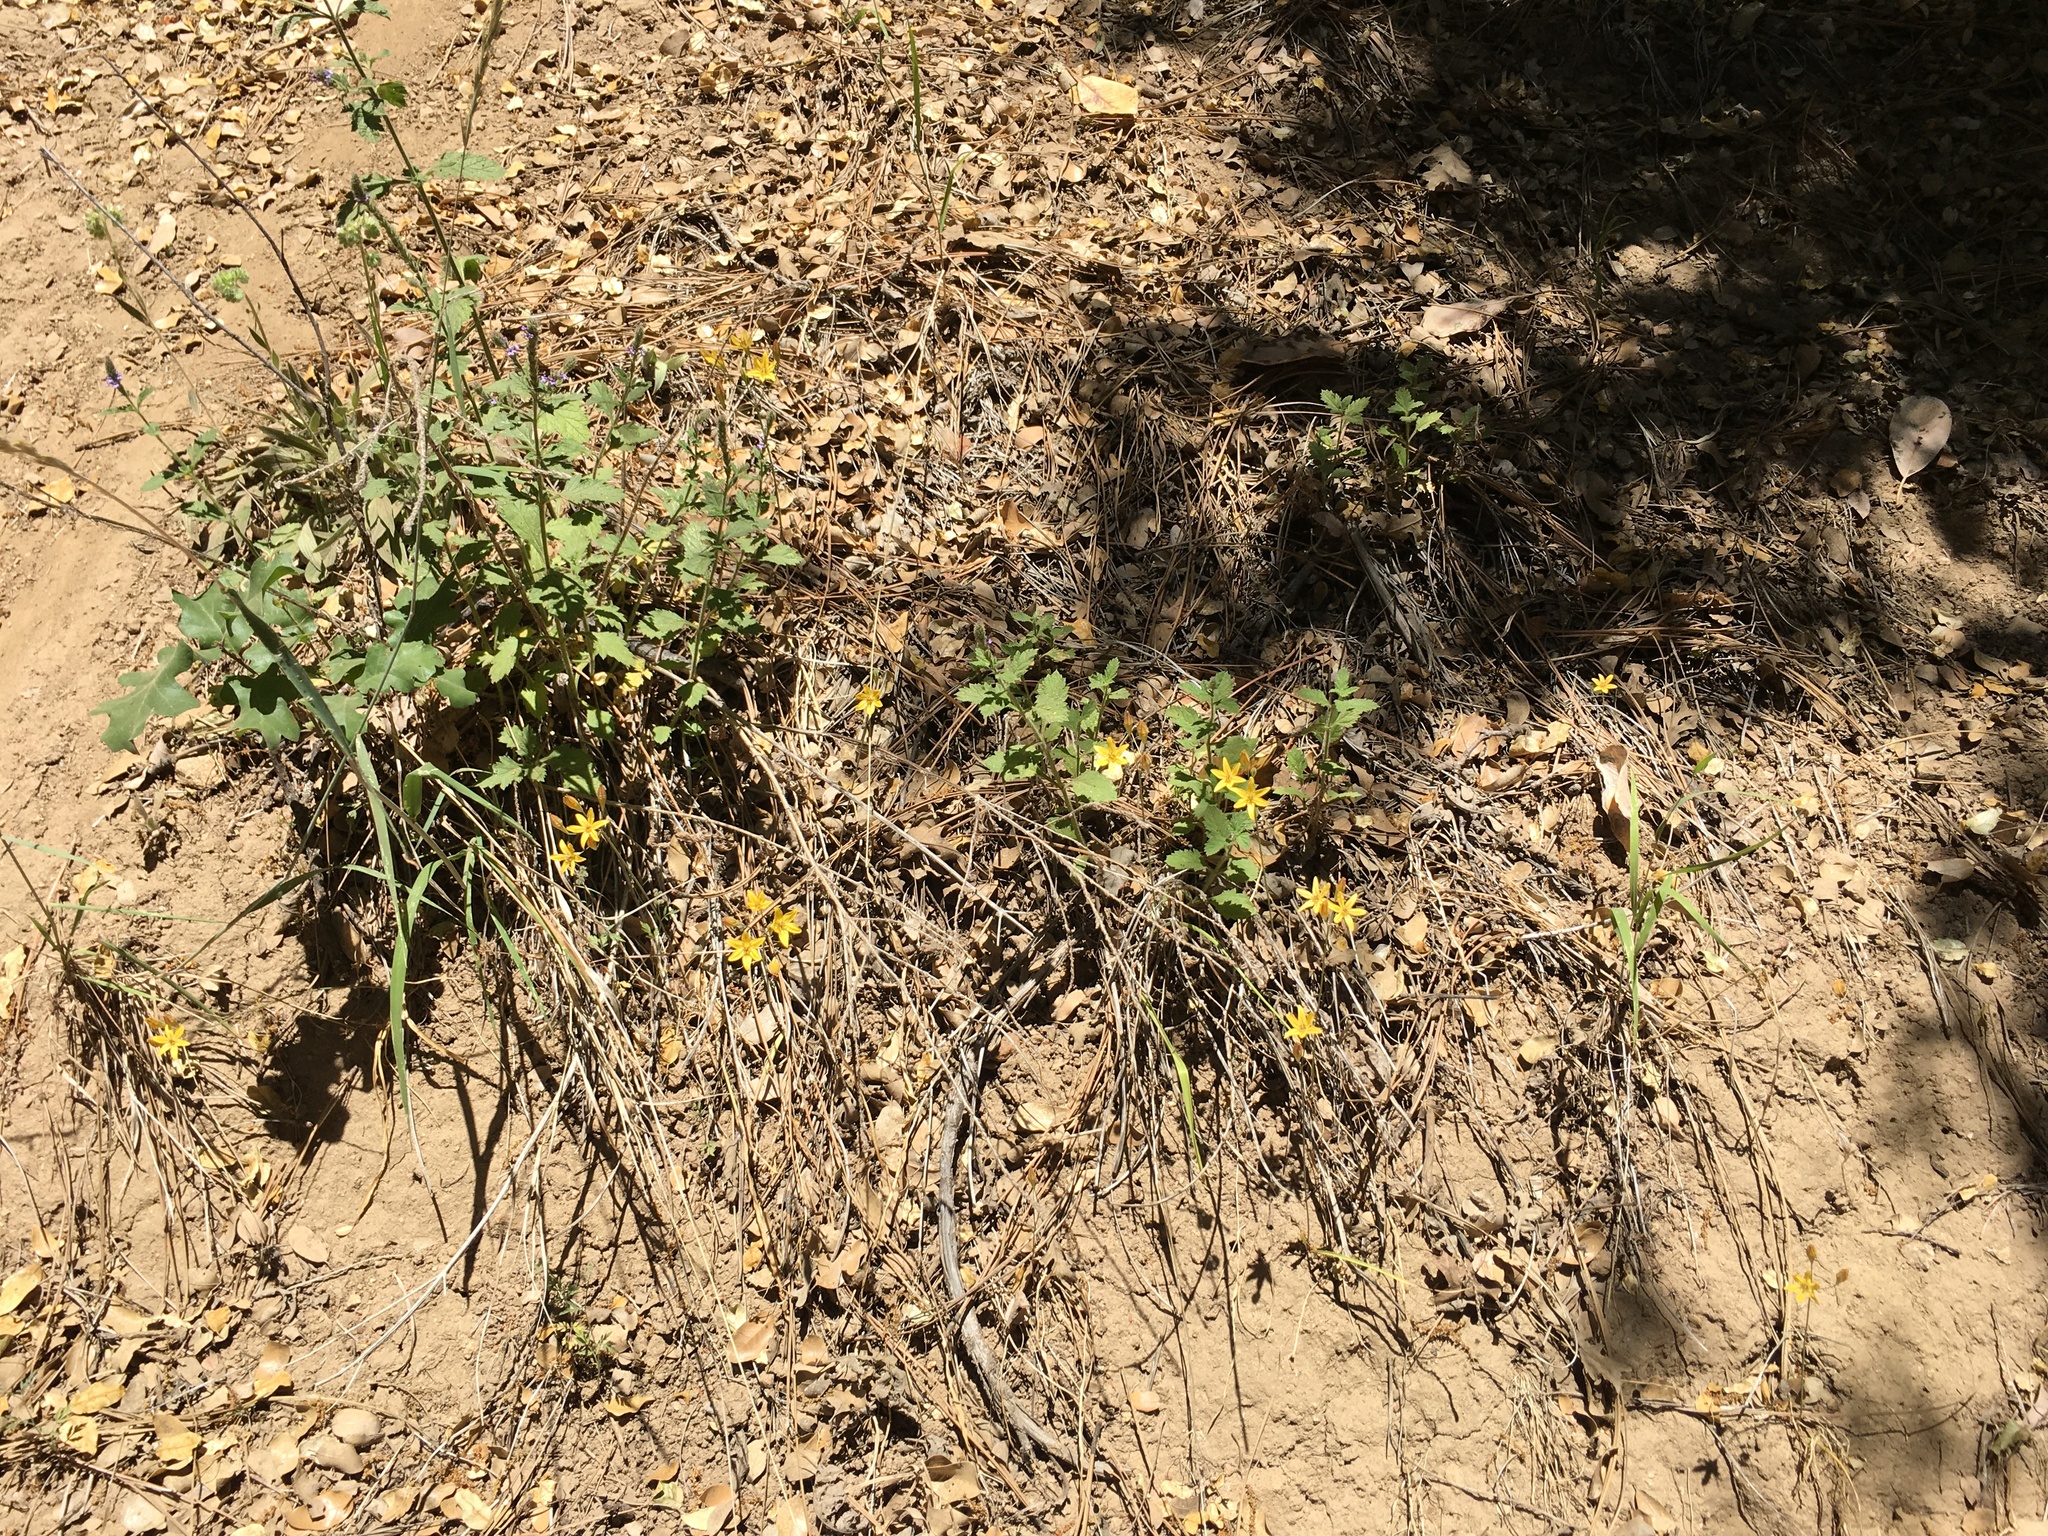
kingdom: Plantae
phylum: Tracheophyta
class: Liliopsida
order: Asparagales
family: Asparagaceae
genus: Triteleia
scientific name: Triteleia ixioides
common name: Yellow-brodiaea
